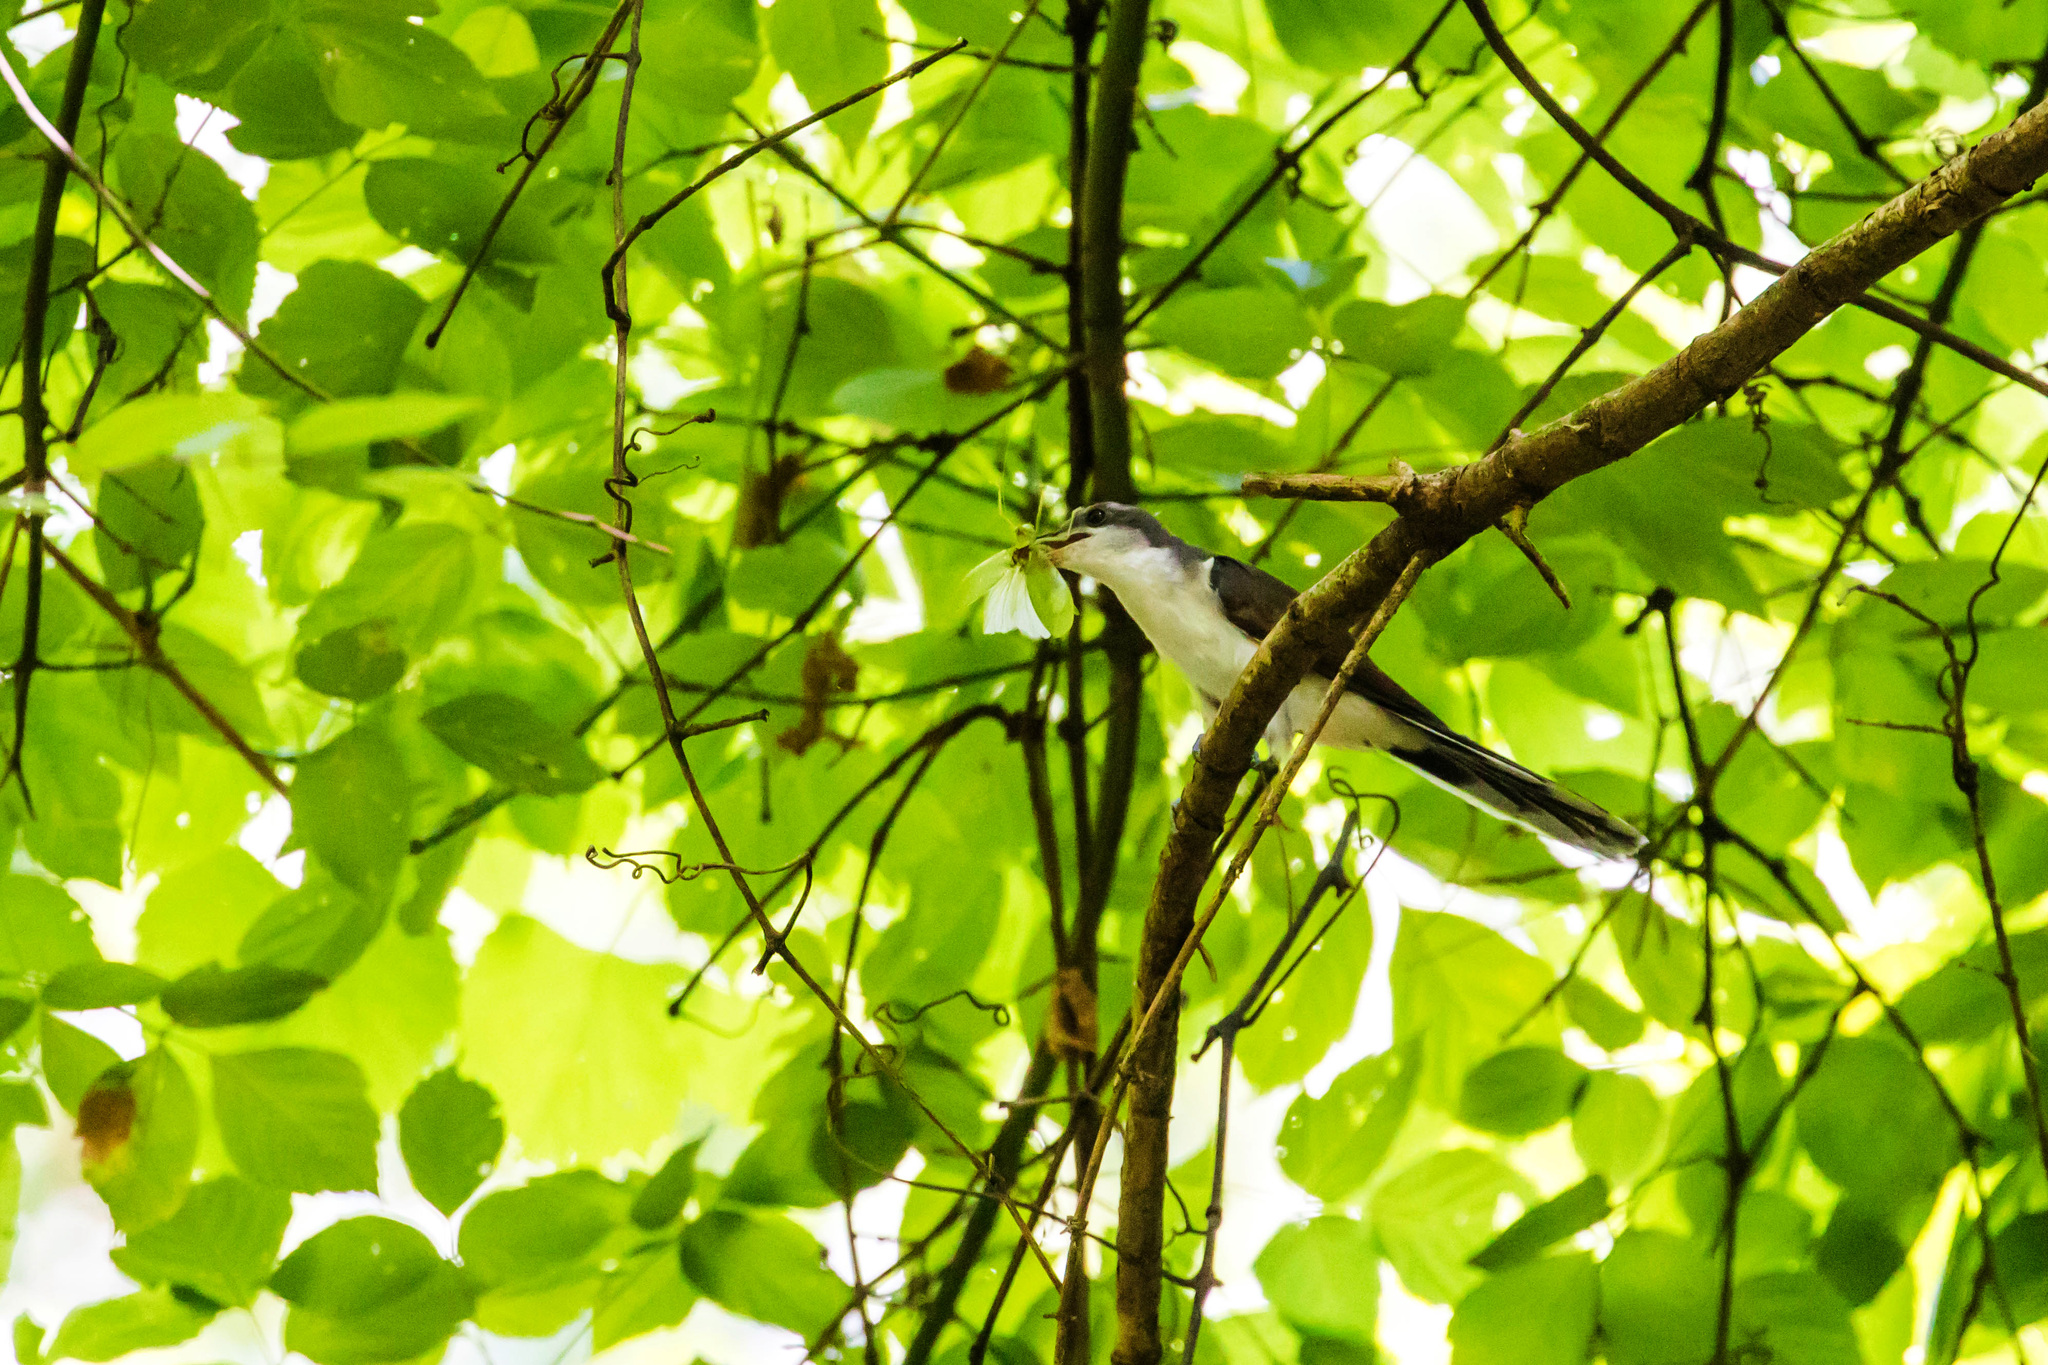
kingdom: Animalia
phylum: Chordata
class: Aves
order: Cuculiformes
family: Cuculidae
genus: Coccyzus
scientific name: Coccyzus americanus
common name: Yellow-billed cuckoo
